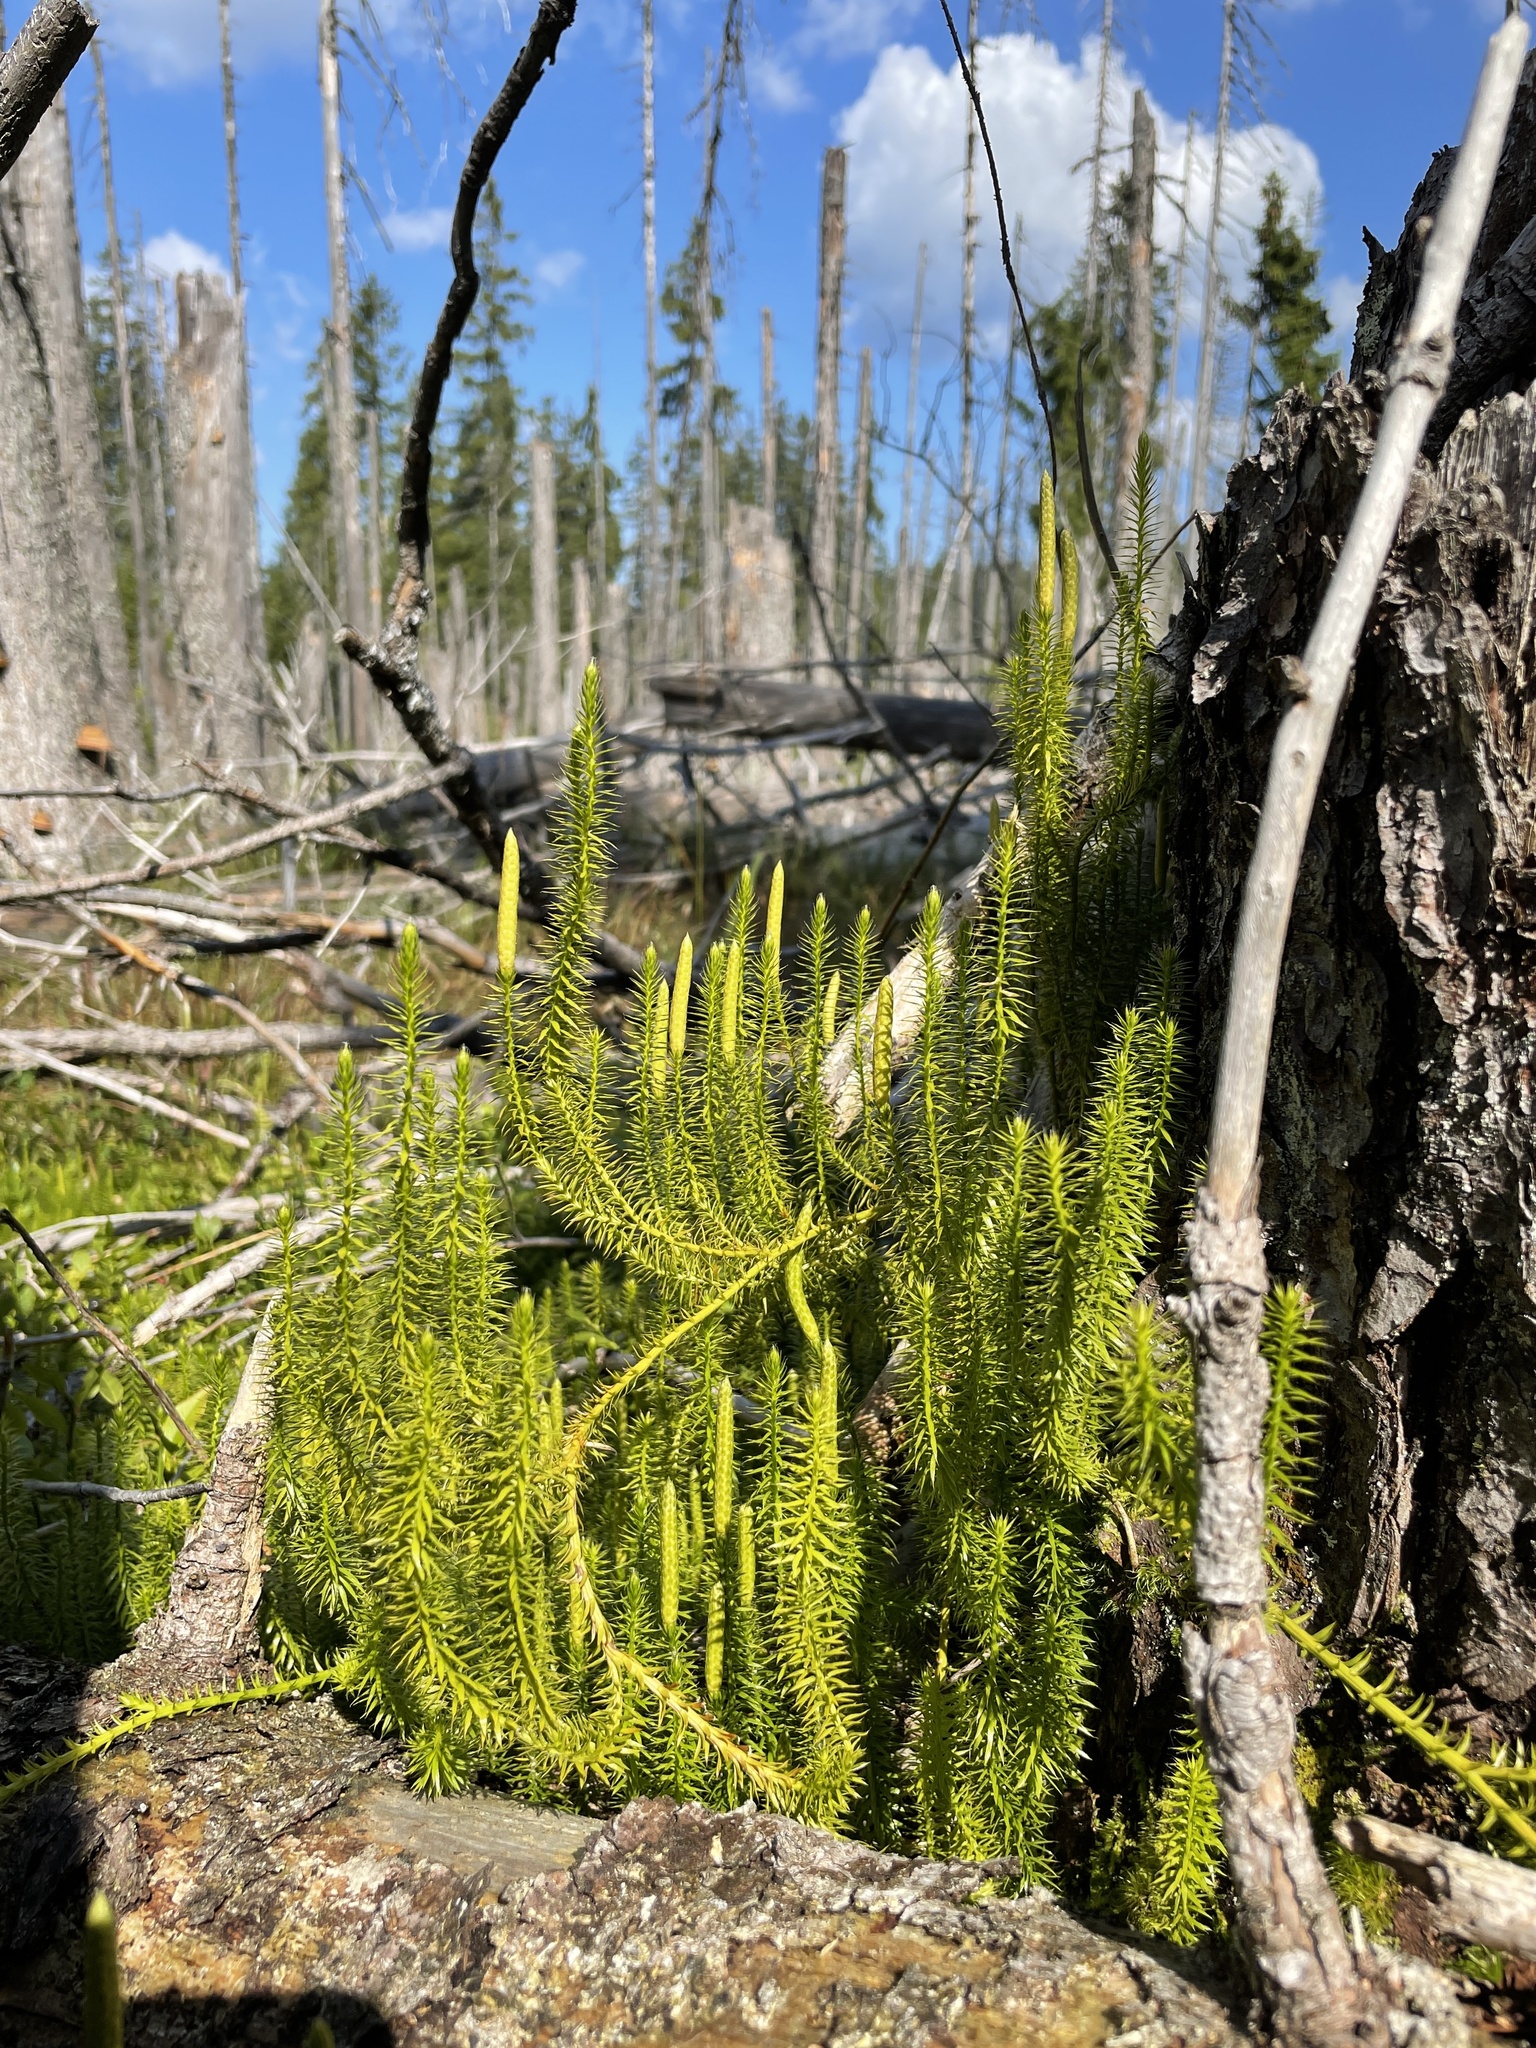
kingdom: Plantae
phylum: Tracheophyta
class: Lycopodiopsida
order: Lycopodiales
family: Lycopodiaceae
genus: Spinulum
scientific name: Spinulum annotinum
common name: Interrupted club-moss
